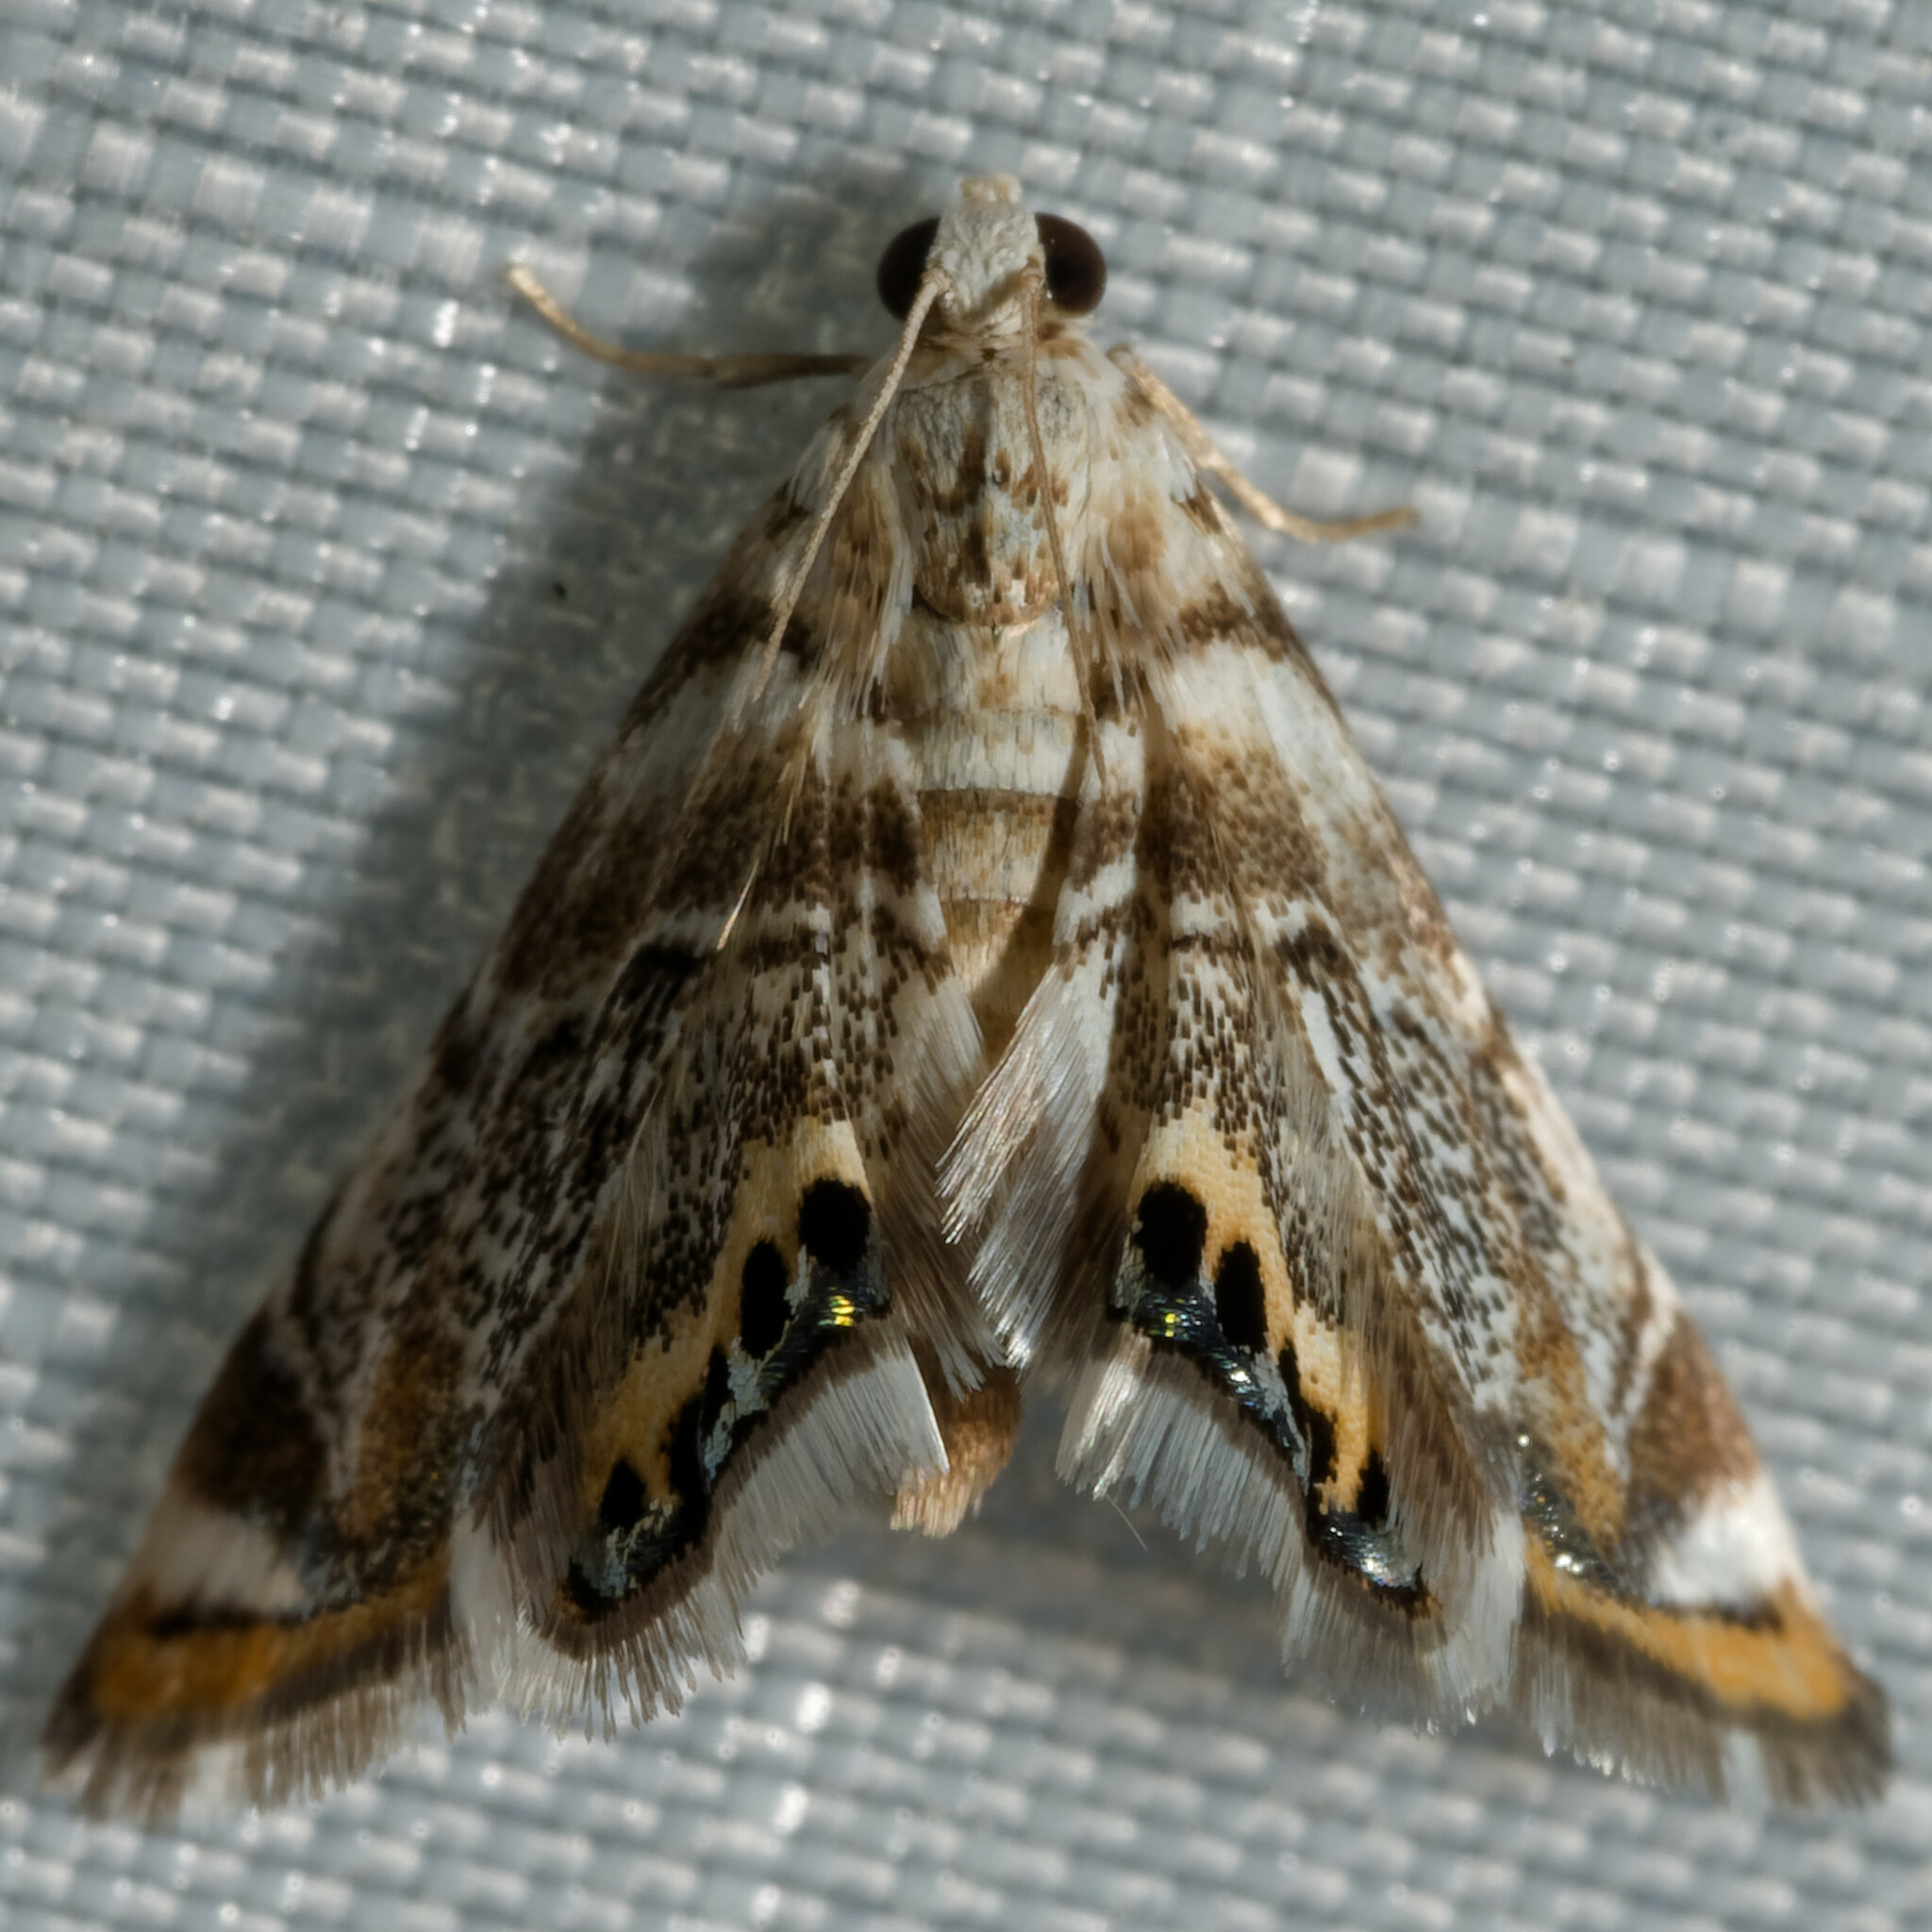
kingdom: Animalia
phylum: Arthropoda
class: Insecta
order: Lepidoptera
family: Crambidae
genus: Eoparargyractis
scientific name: Eoparargyractis irroratalis
